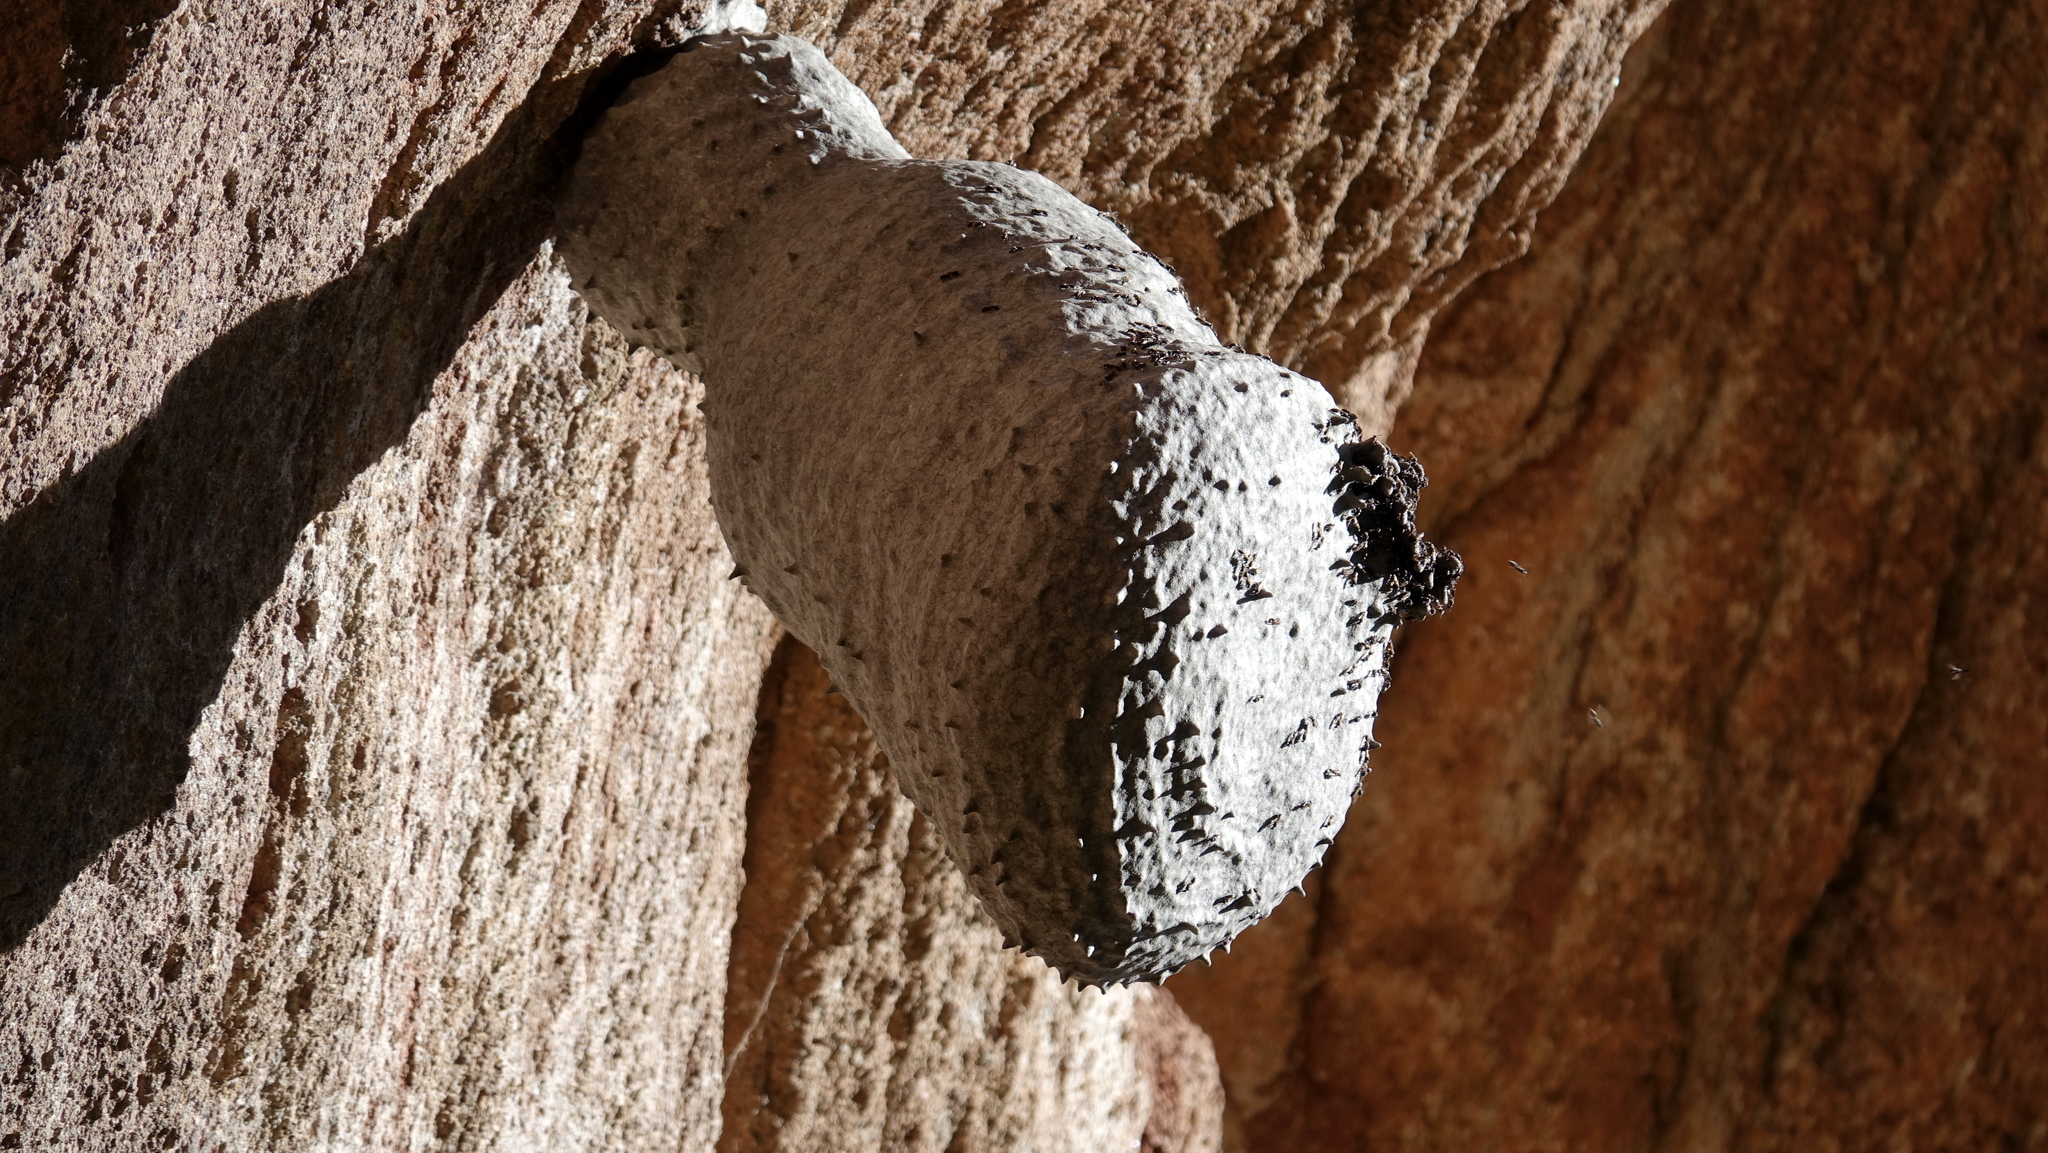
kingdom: Animalia
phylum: Arthropoda
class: Insecta
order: Hymenoptera
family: Eumenidae
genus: Polybia
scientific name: Polybia scutellaris
